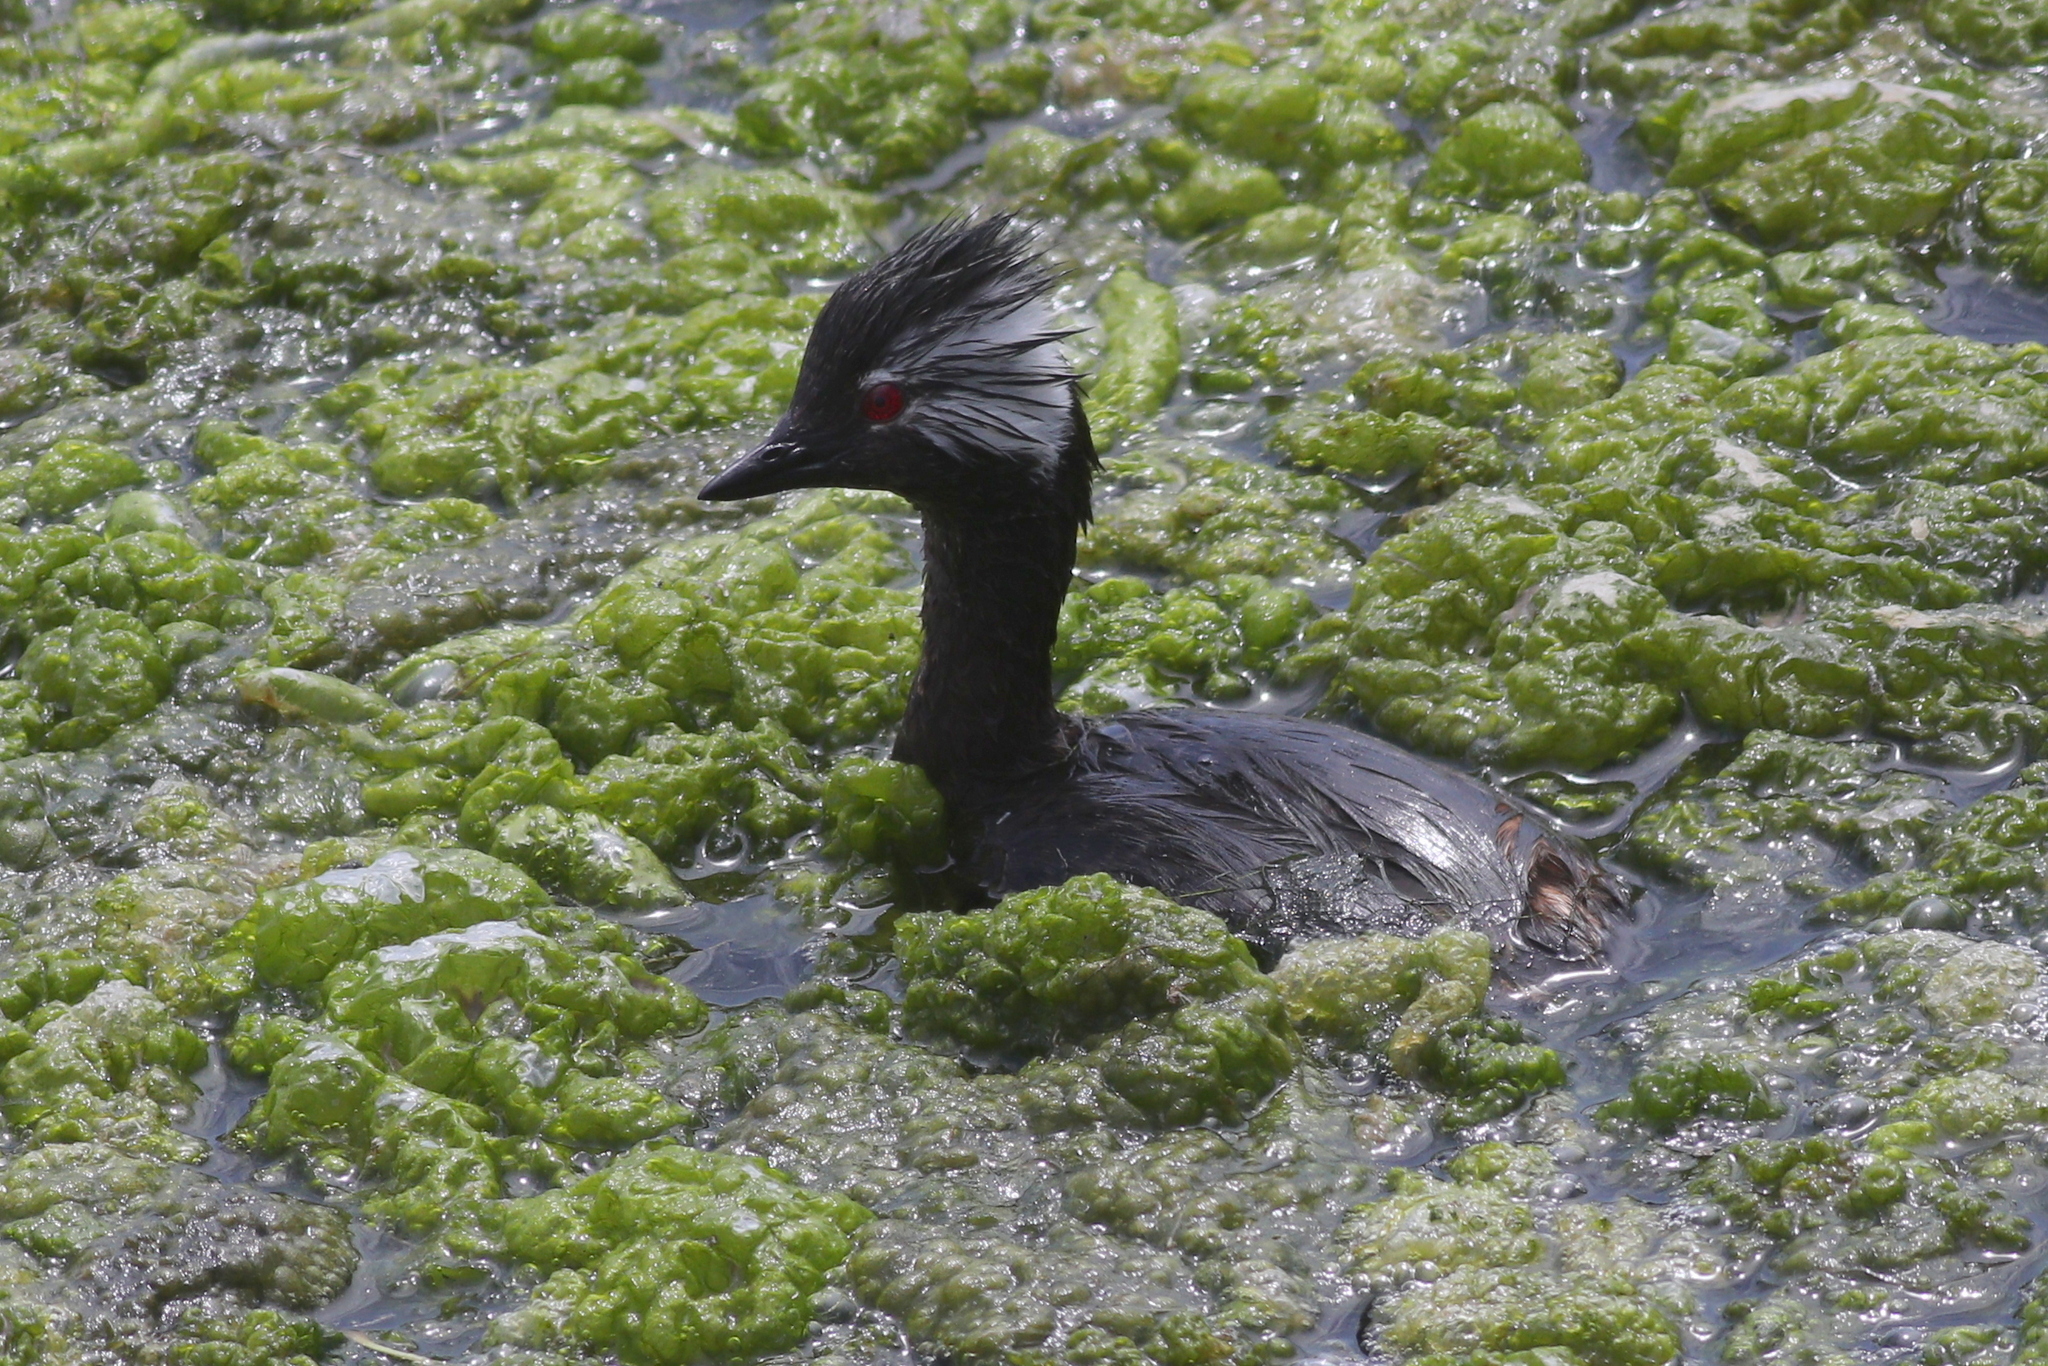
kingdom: Animalia
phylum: Chordata
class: Aves
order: Podicipediformes
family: Podicipedidae
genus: Rollandia
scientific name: Rollandia rolland
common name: White-tufted grebe
